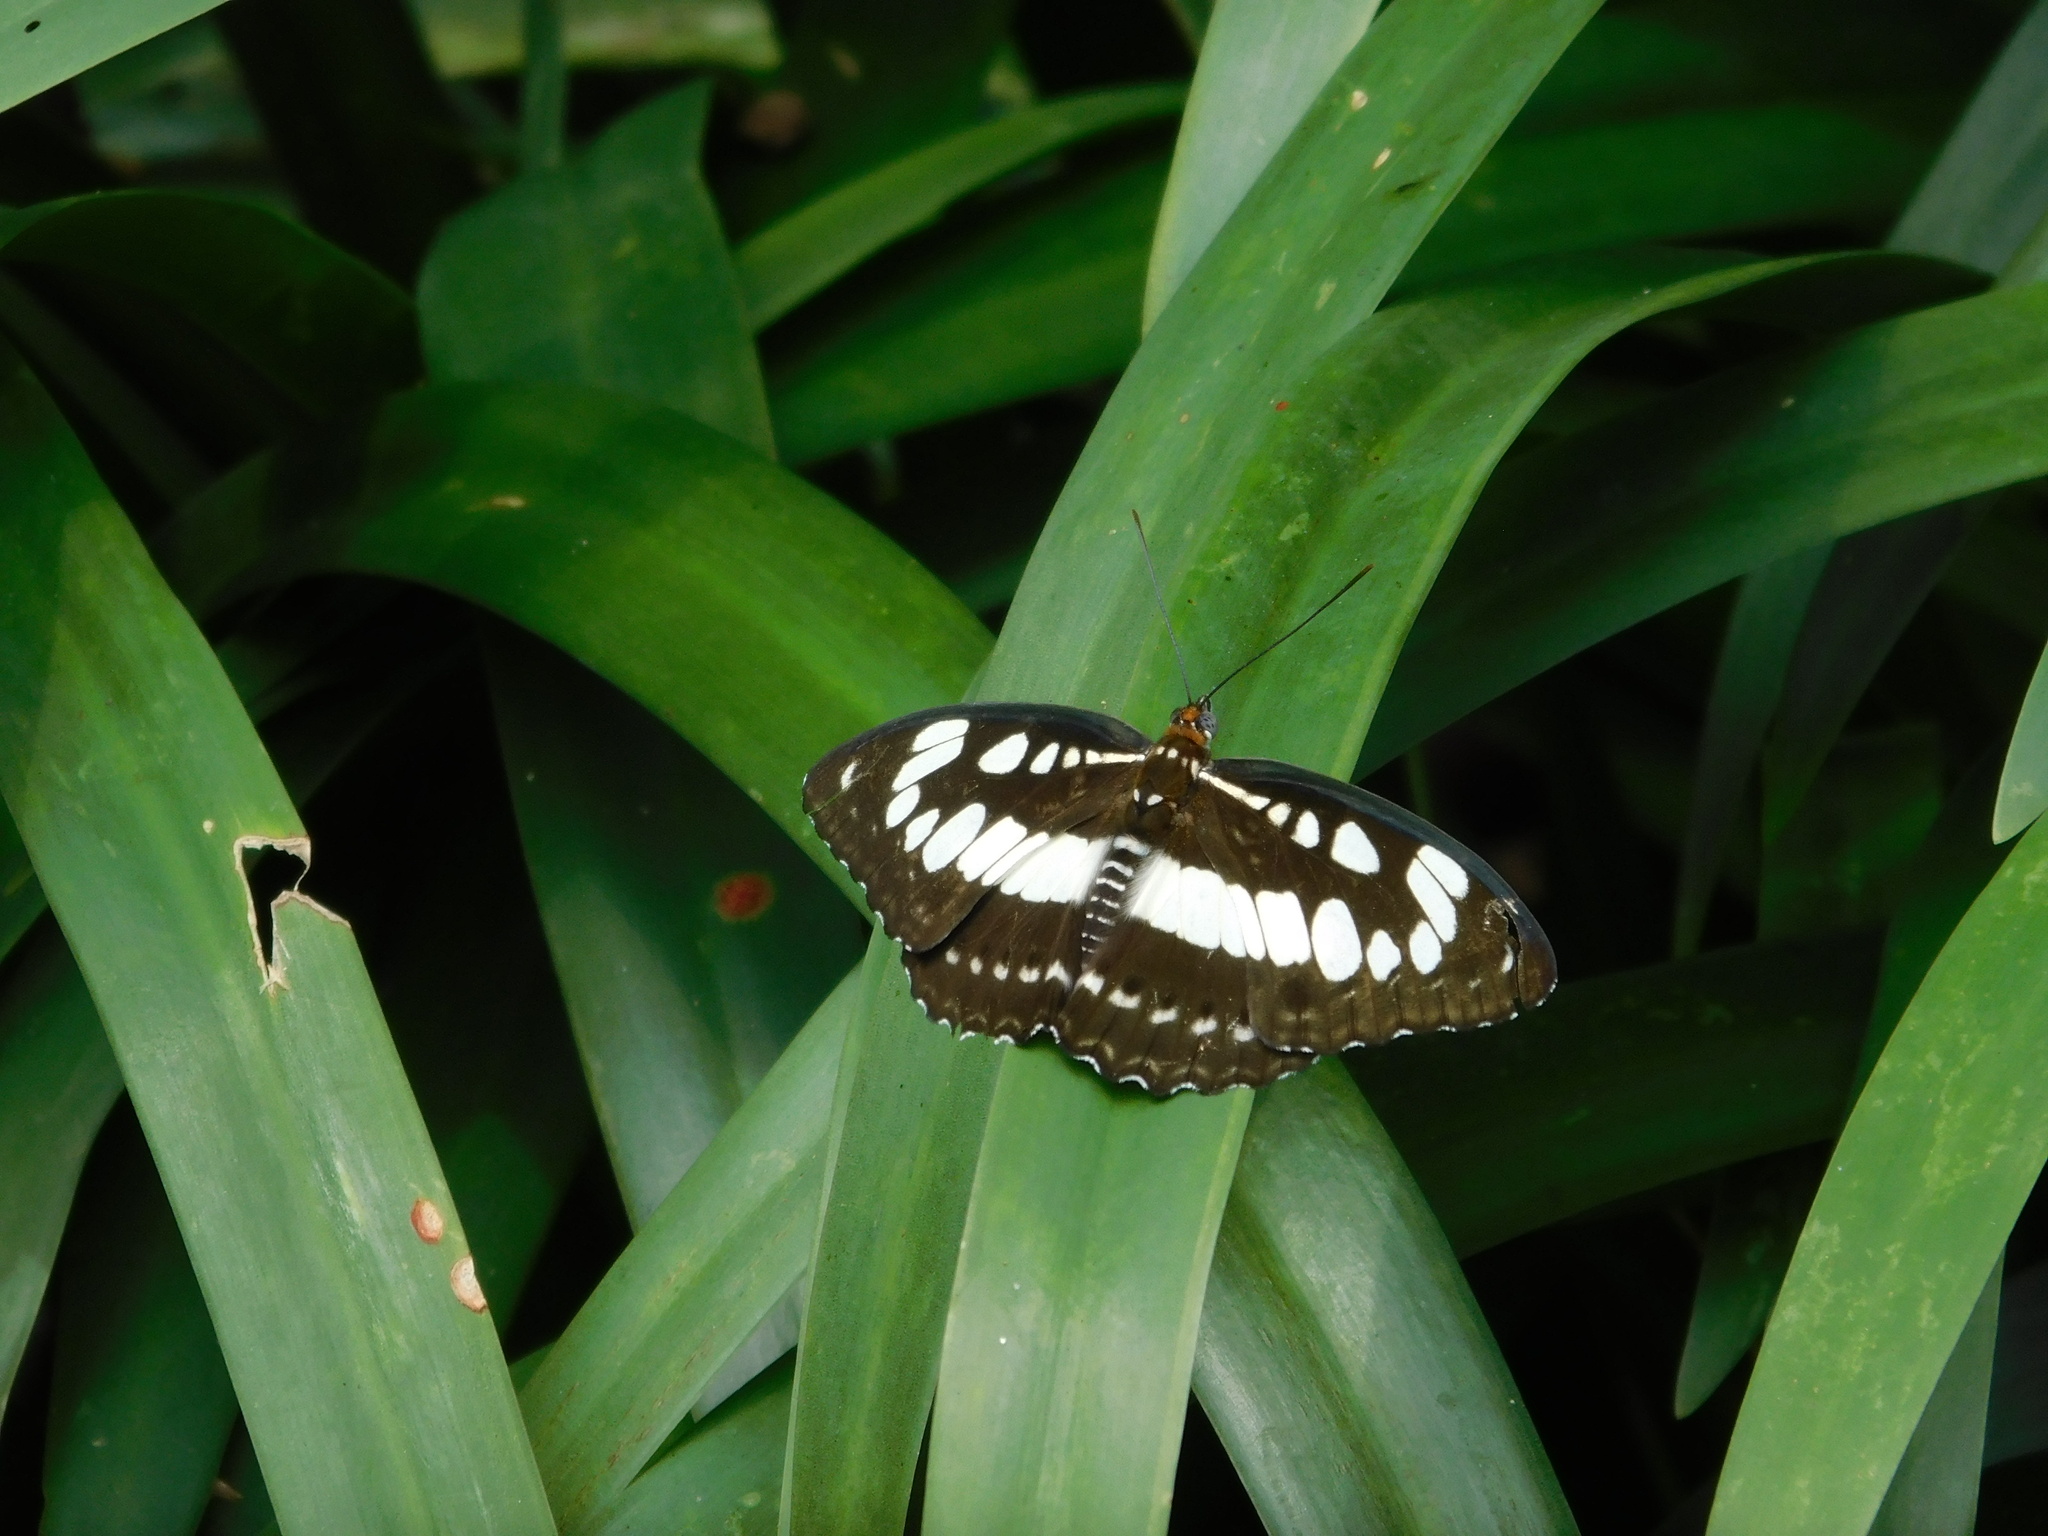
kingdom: Animalia
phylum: Arthropoda
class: Insecta
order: Lepidoptera
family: Nymphalidae
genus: Parathyma
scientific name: Parathyma perius
